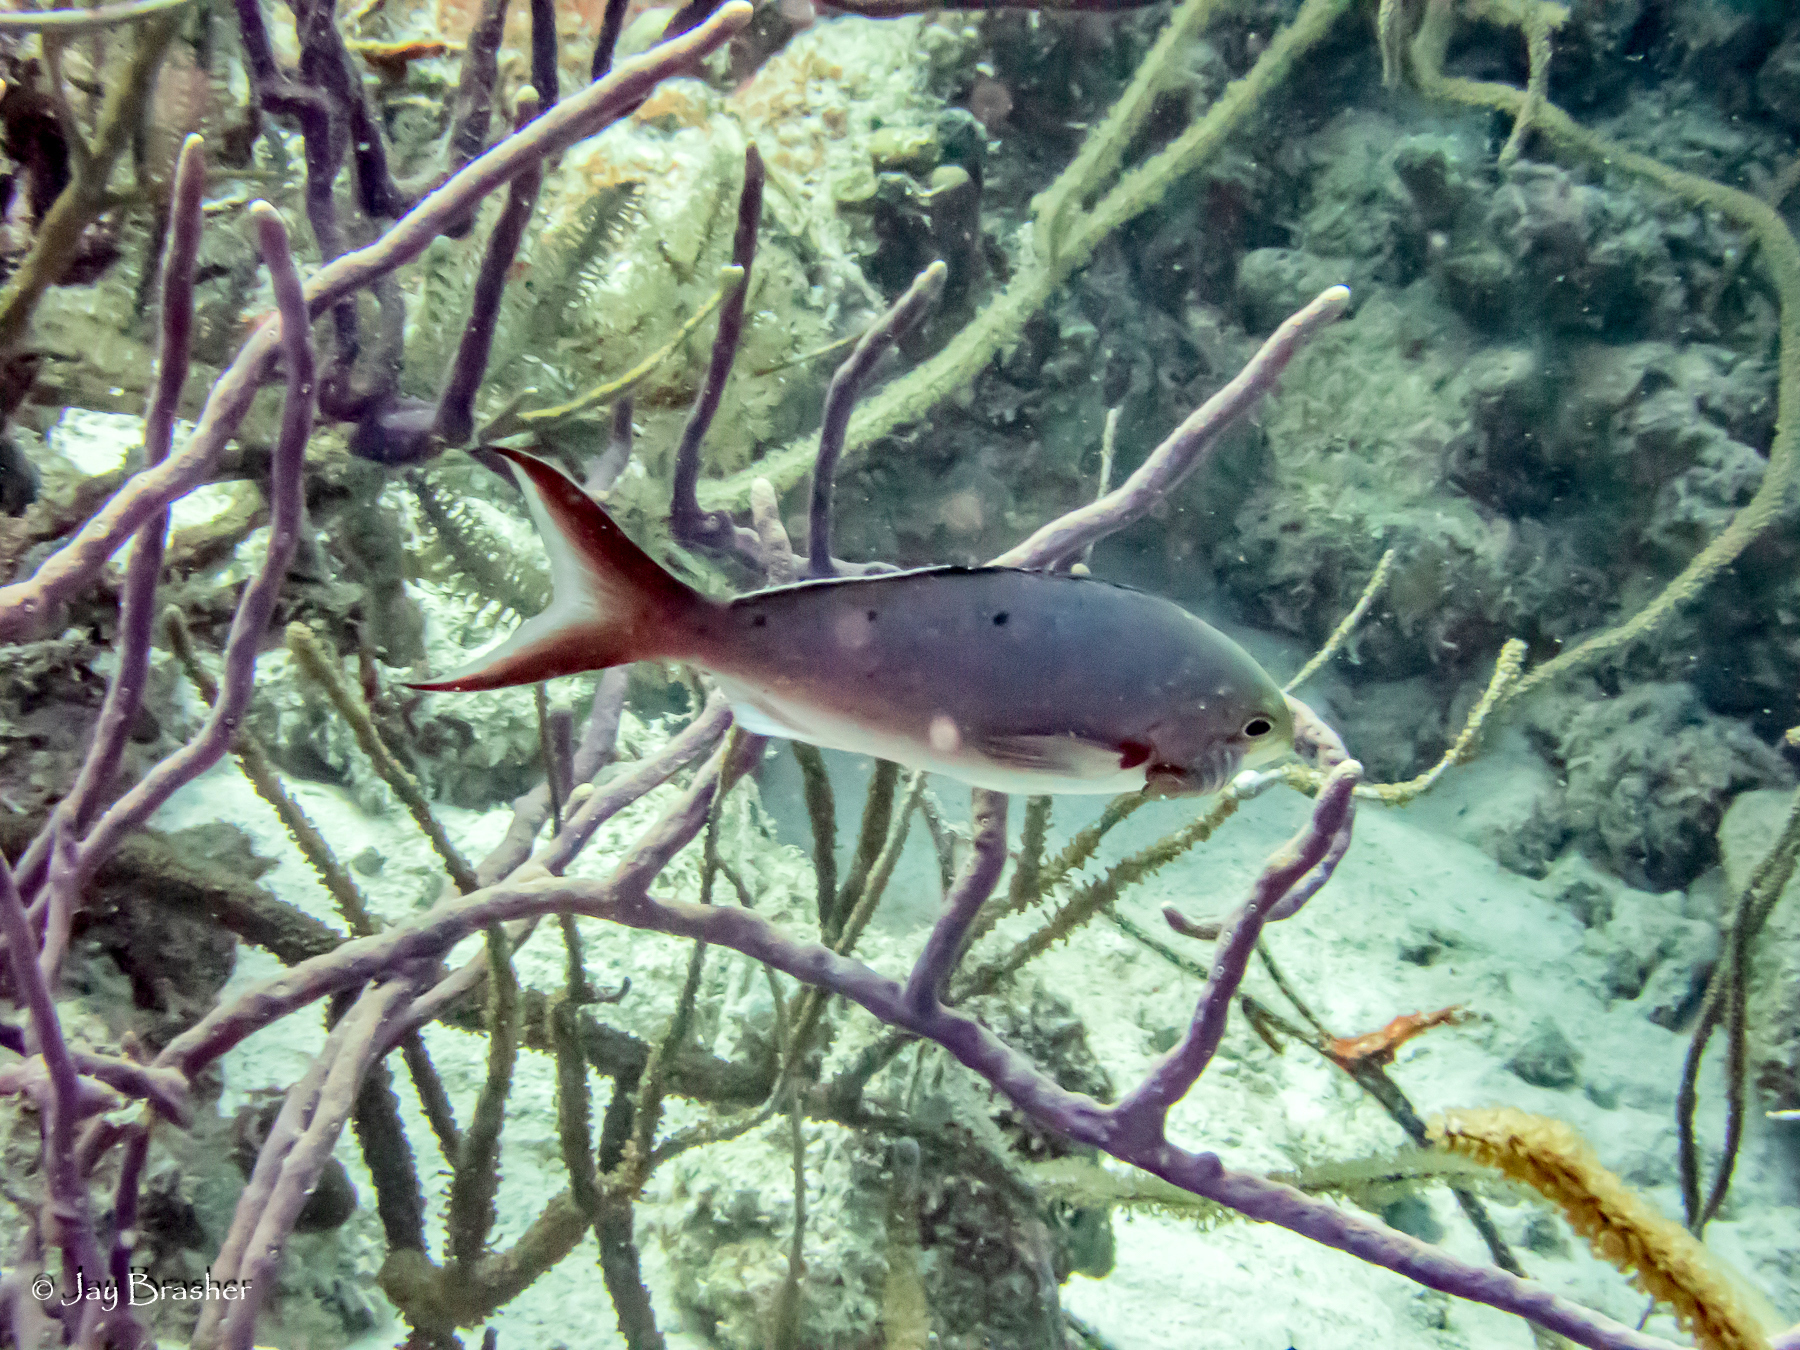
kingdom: Animalia
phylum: Chordata
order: Perciformes
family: Serranidae
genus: Paranthias
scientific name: Paranthias furcifer
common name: Creole-fish
